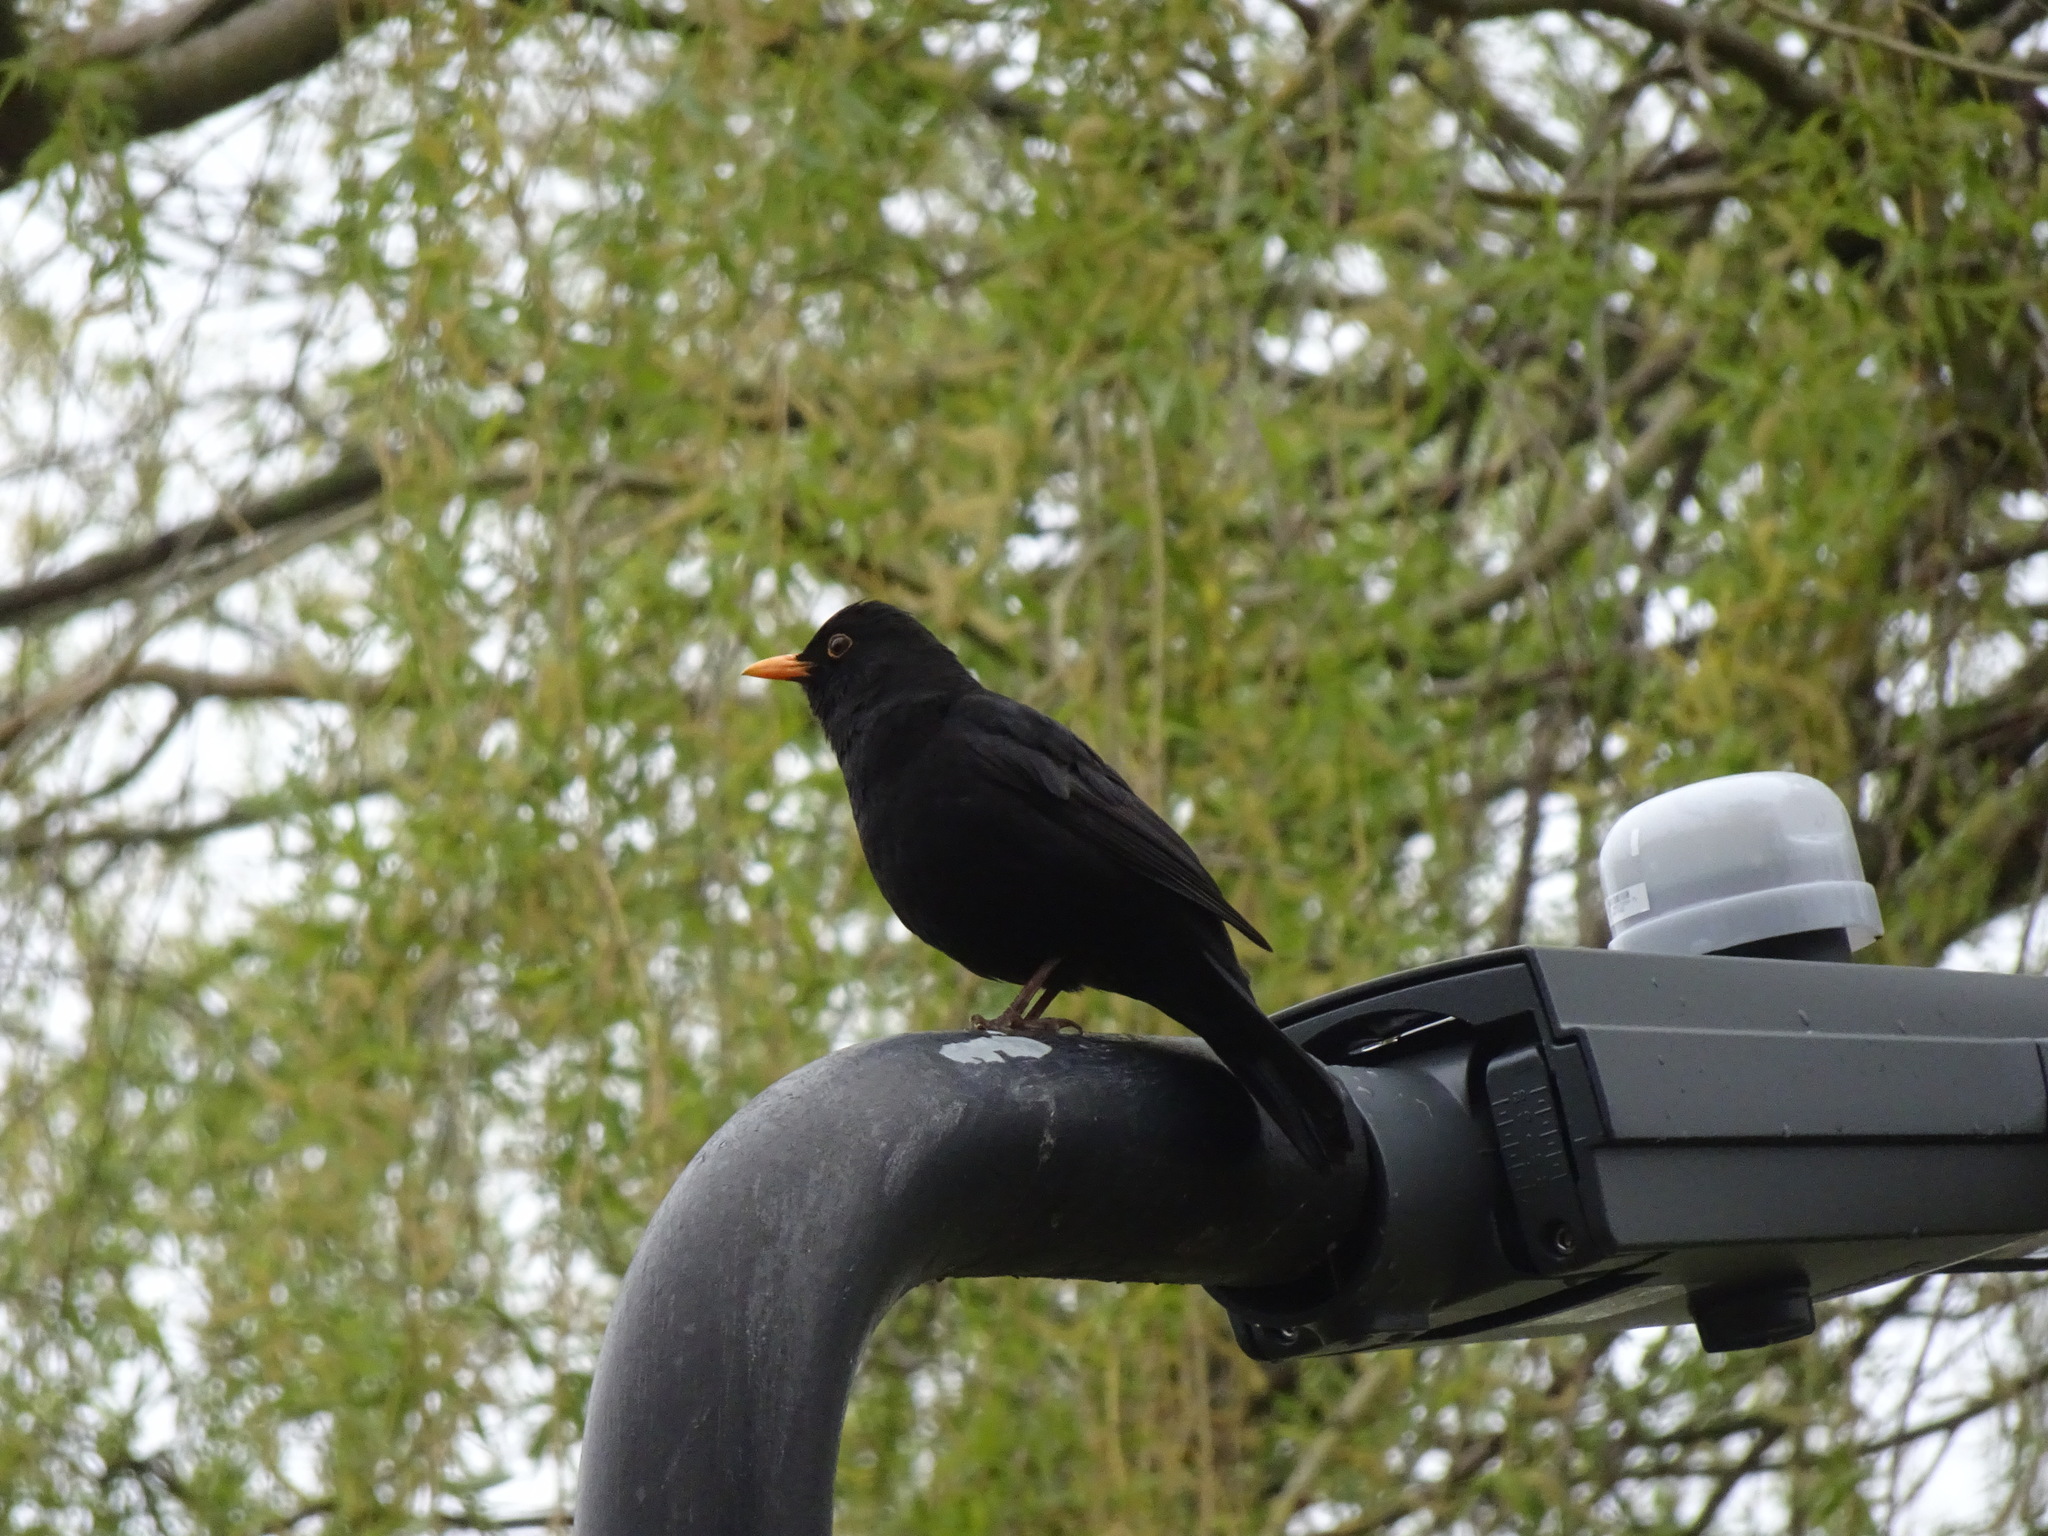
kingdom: Animalia
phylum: Chordata
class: Aves
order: Passeriformes
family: Turdidae
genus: Turdus
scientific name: Turdus merula
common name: Common blackbird
